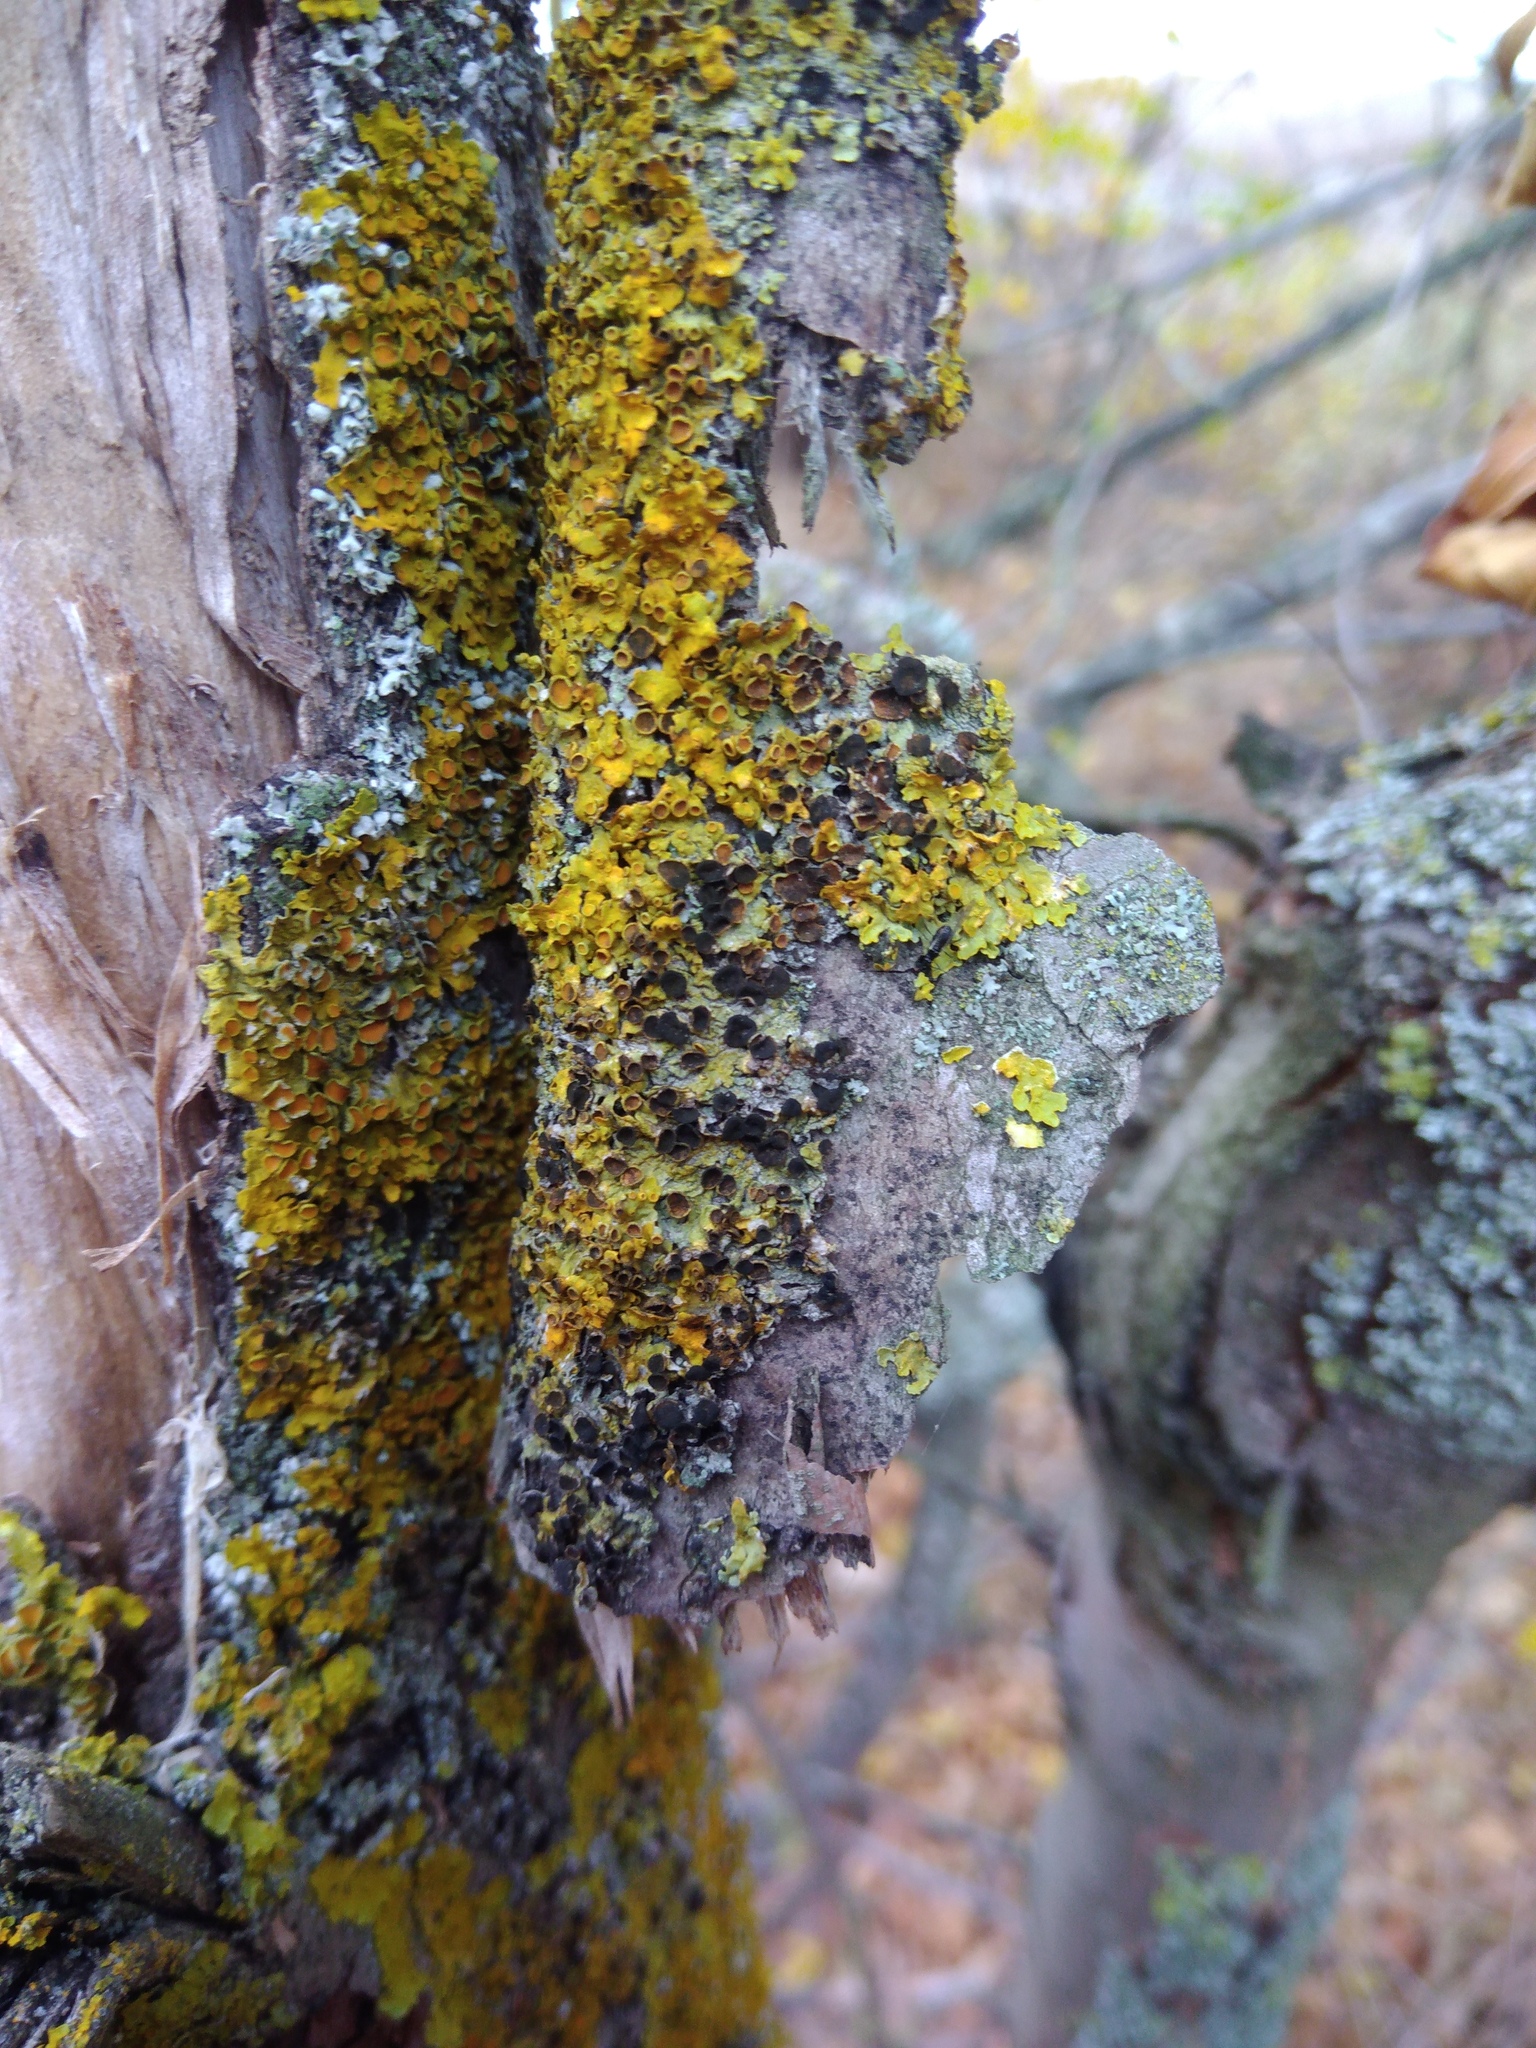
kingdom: Fungi
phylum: Ascomycota
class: Dothideomycetes
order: Mycosphaerellales
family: Teratosphaeriaceae
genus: Xanthoriicola
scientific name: Xanthoriicola physciae
